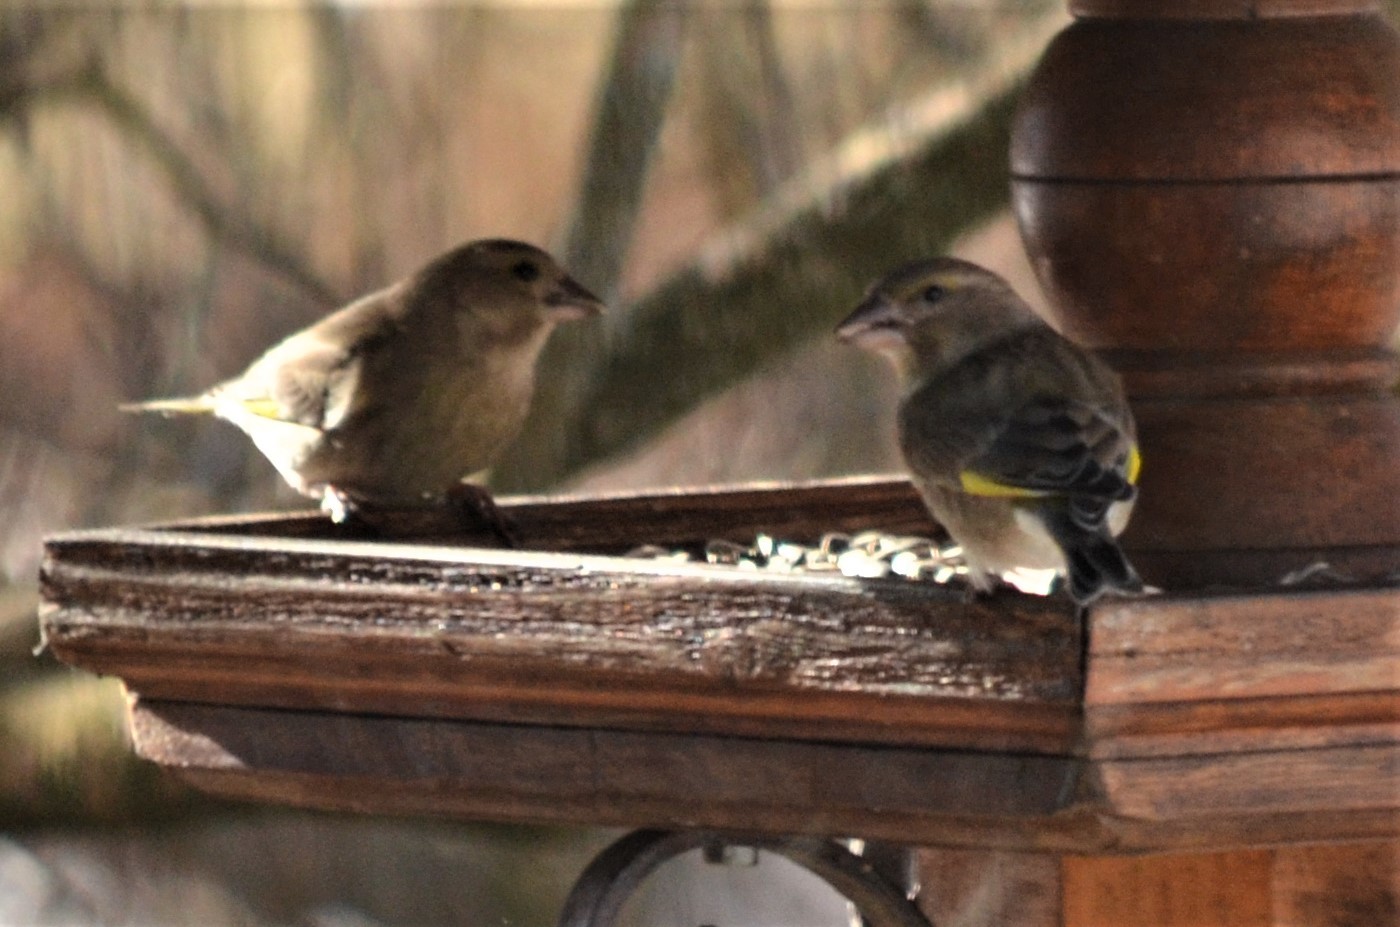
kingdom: Plantae
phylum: Tracheophyta
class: Liliopsida
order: Poales
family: Poaceae
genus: Chloris
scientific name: Chloris chloris
